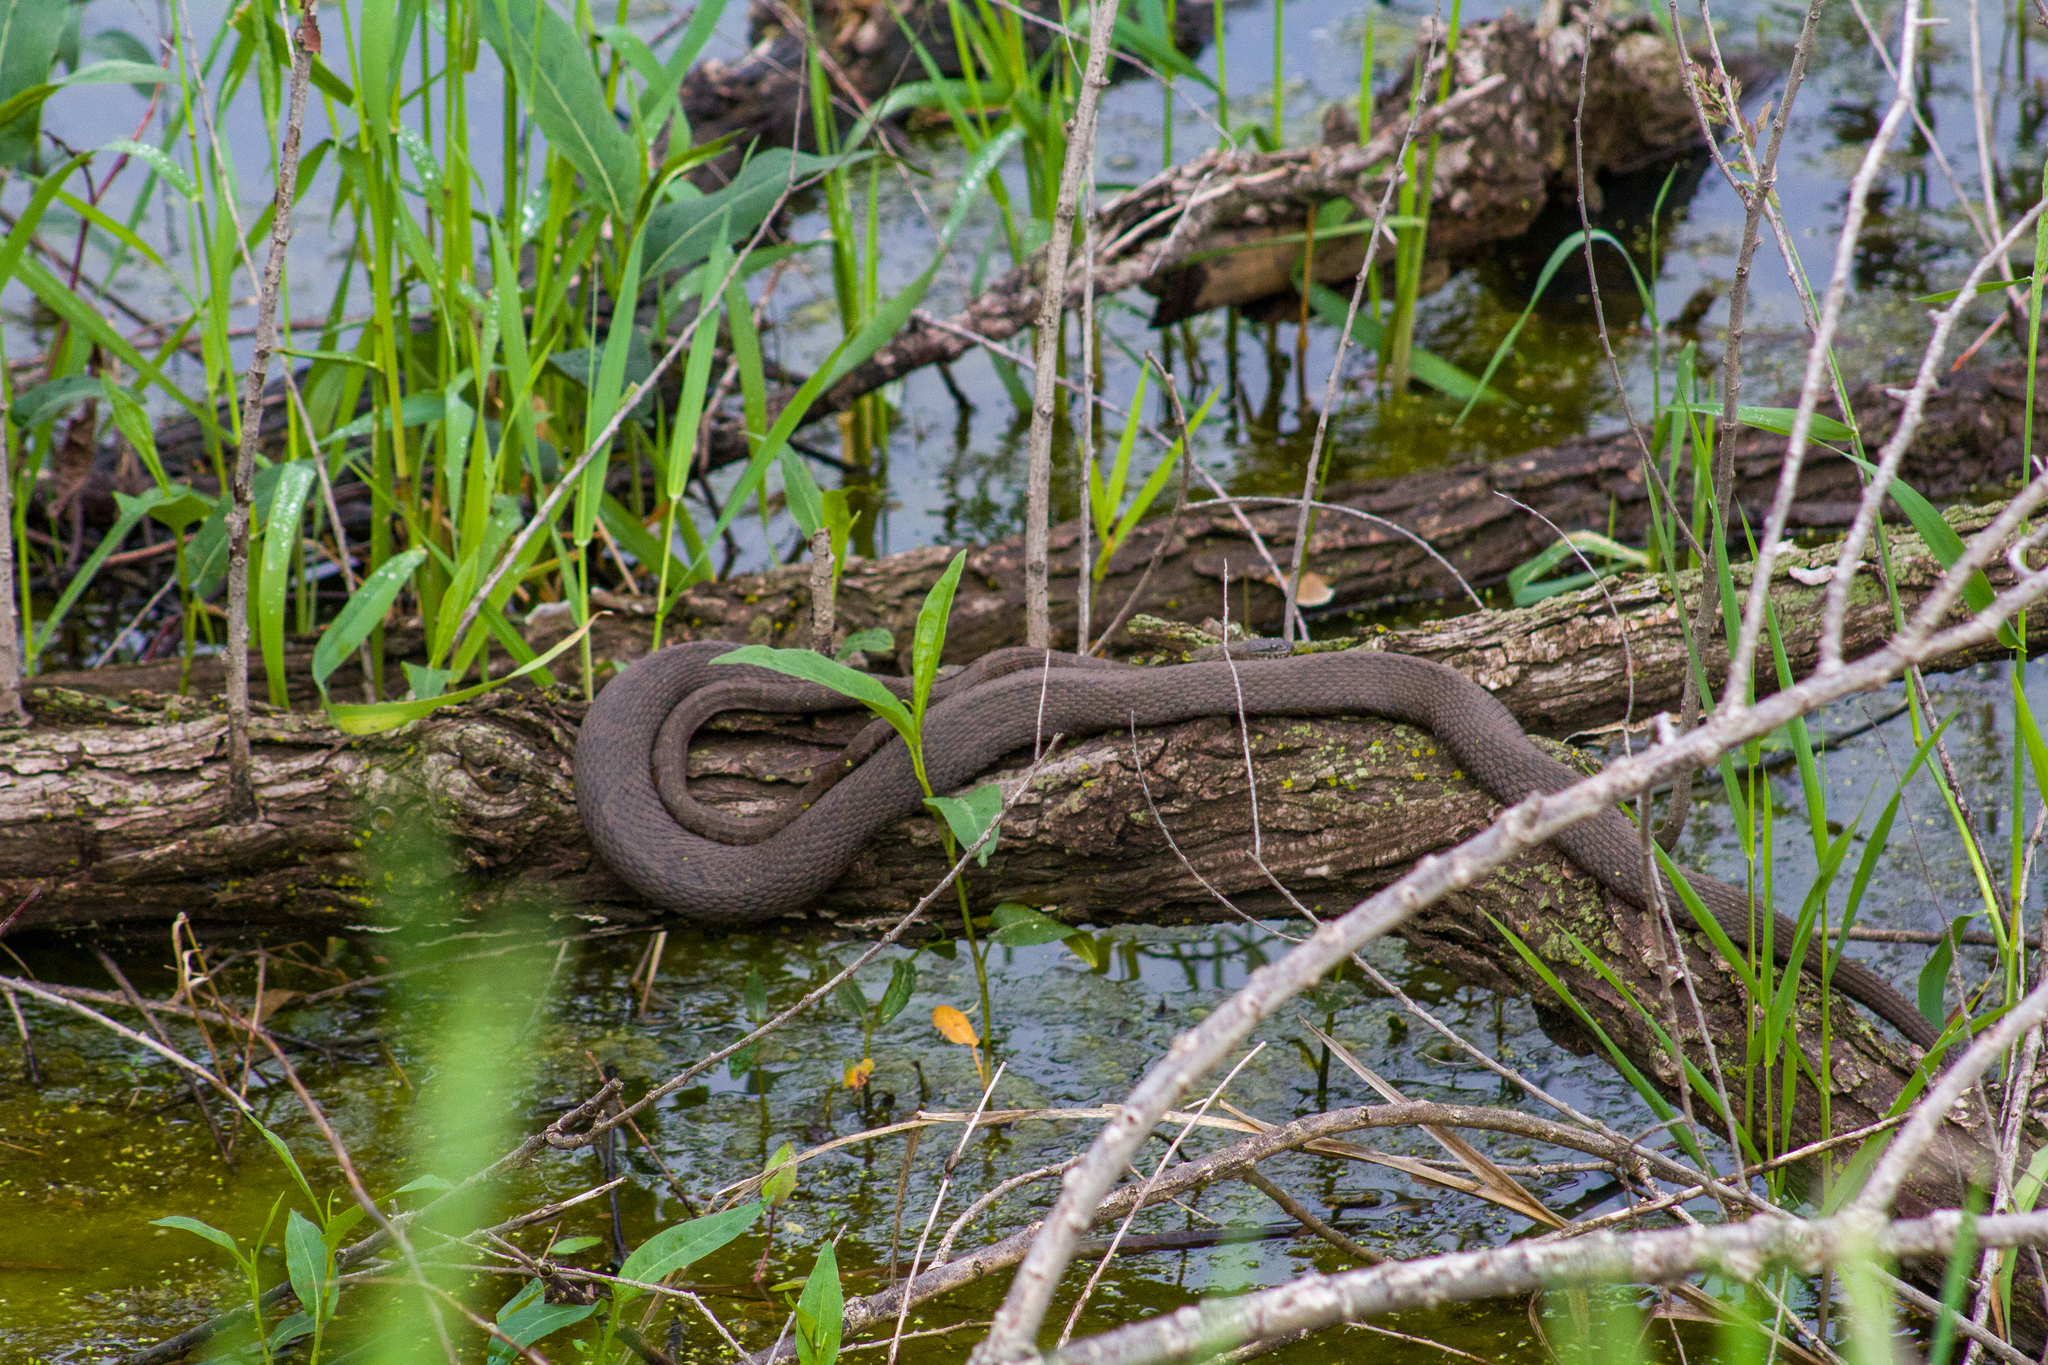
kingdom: Animalia
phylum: Chordata
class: Squamata
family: Colubridae
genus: Nerodia
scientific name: Nerodia sipedon
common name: Northern water snake
